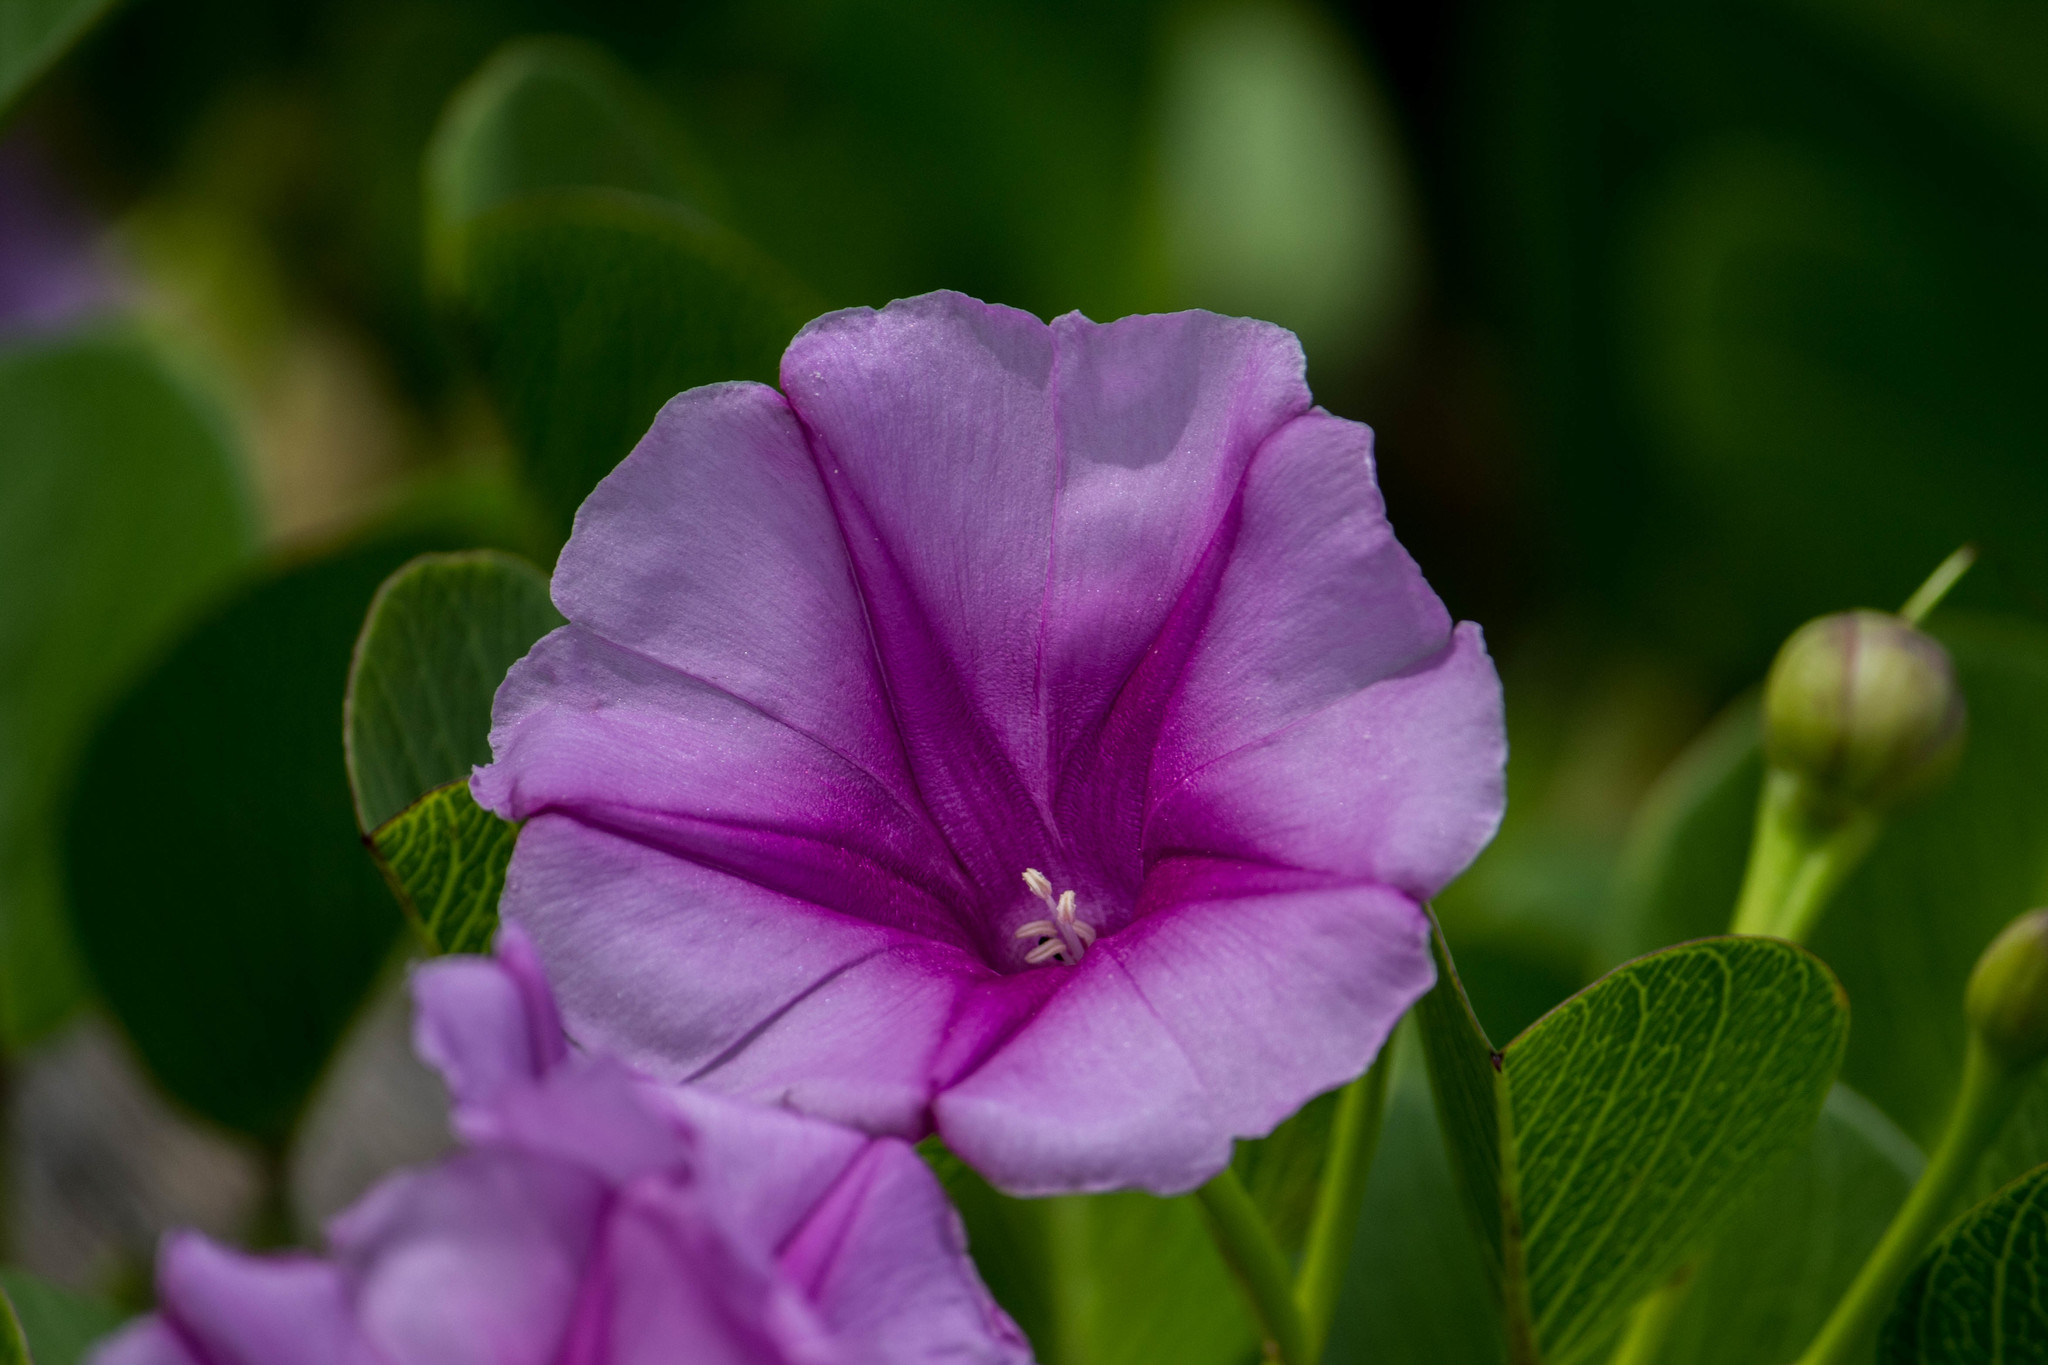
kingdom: Plantae
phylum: Tracheophyta
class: Magnoliopsida
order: Solanales
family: Convolvulaceae
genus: Ipomoea
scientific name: Ipomoea pes-caprae
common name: Beach morning glory
